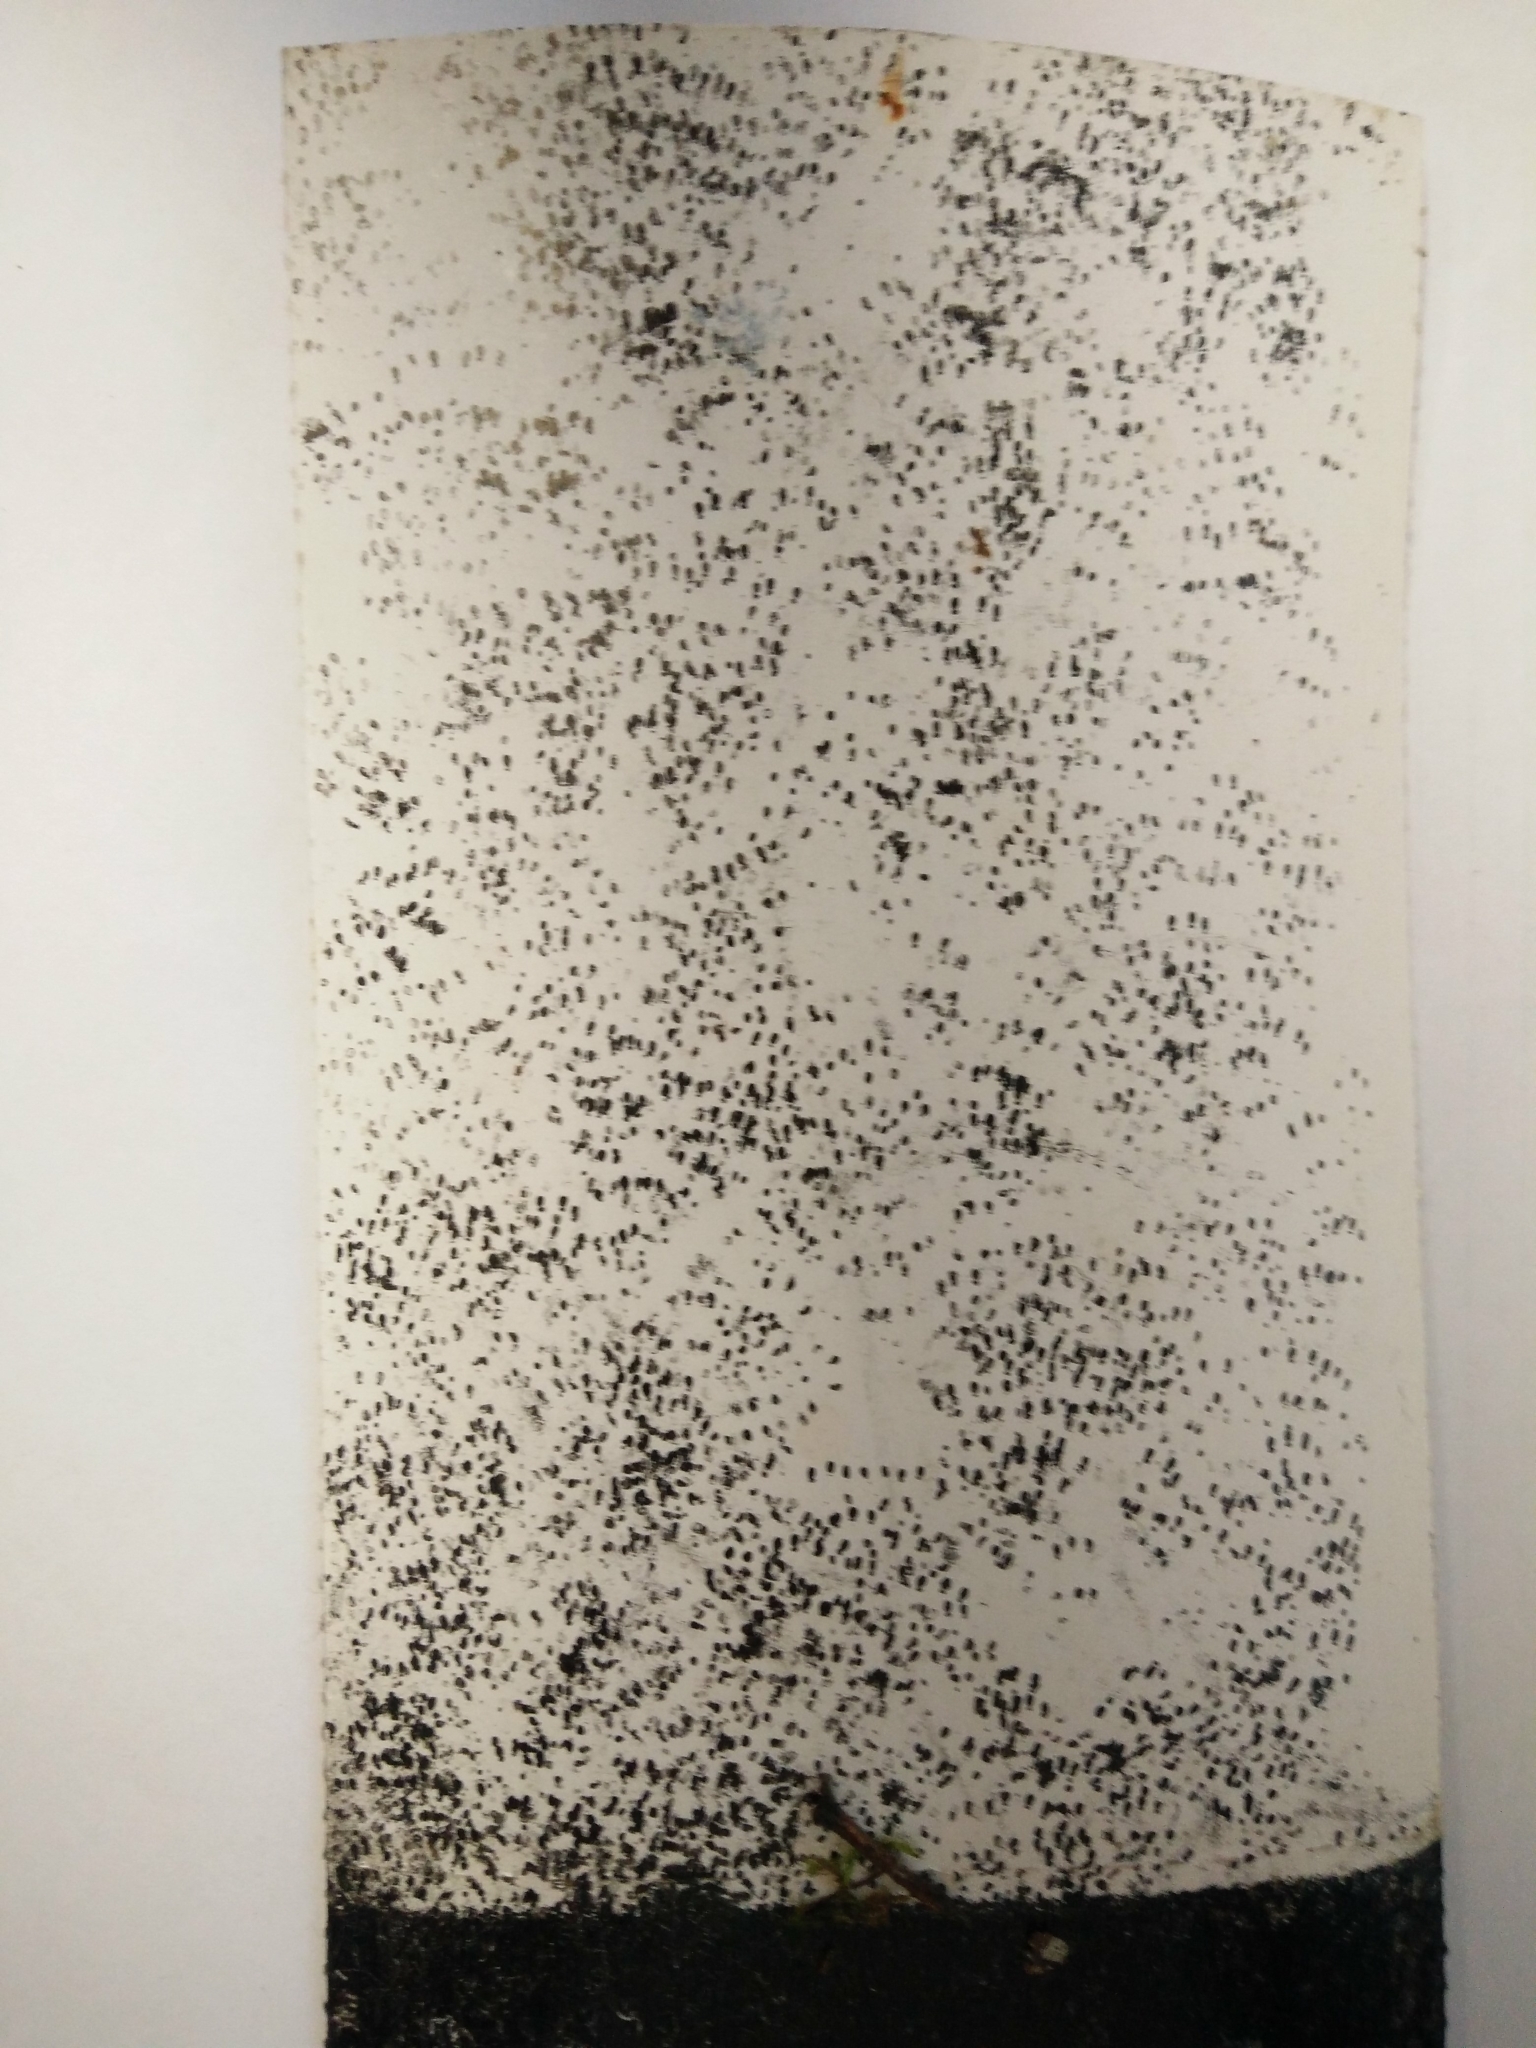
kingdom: Animalia
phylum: Chordata
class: Mammalia
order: Rodentia
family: Muridae
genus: Mus
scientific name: Mus musculus
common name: House mouse
